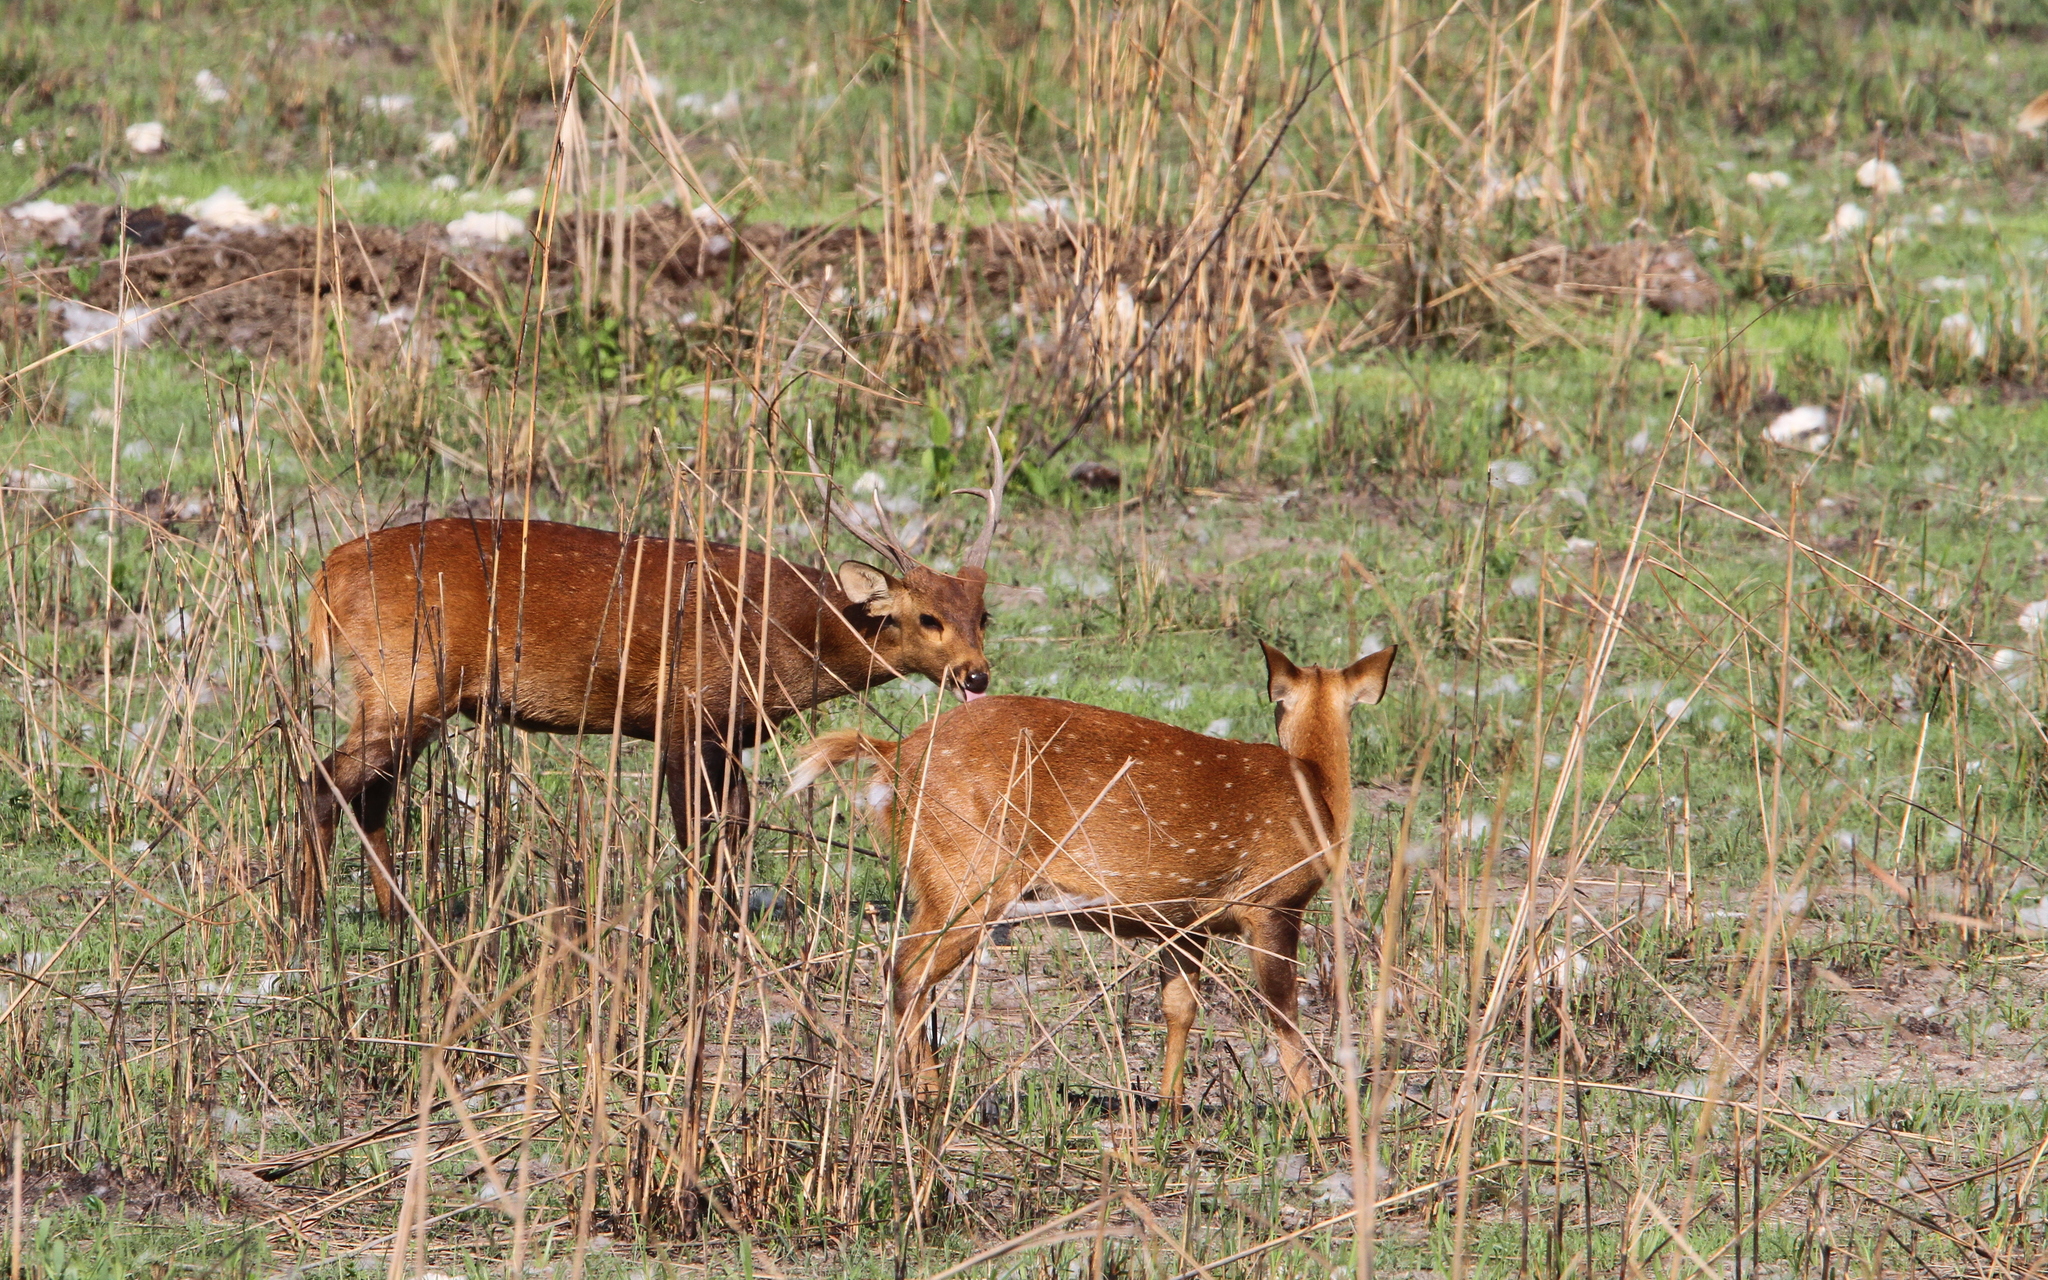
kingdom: Animalia
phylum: Chordata
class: Mammalia
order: Artiodactyla
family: Cervidae
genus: Axis
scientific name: Axis porcinus
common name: Hog deer
